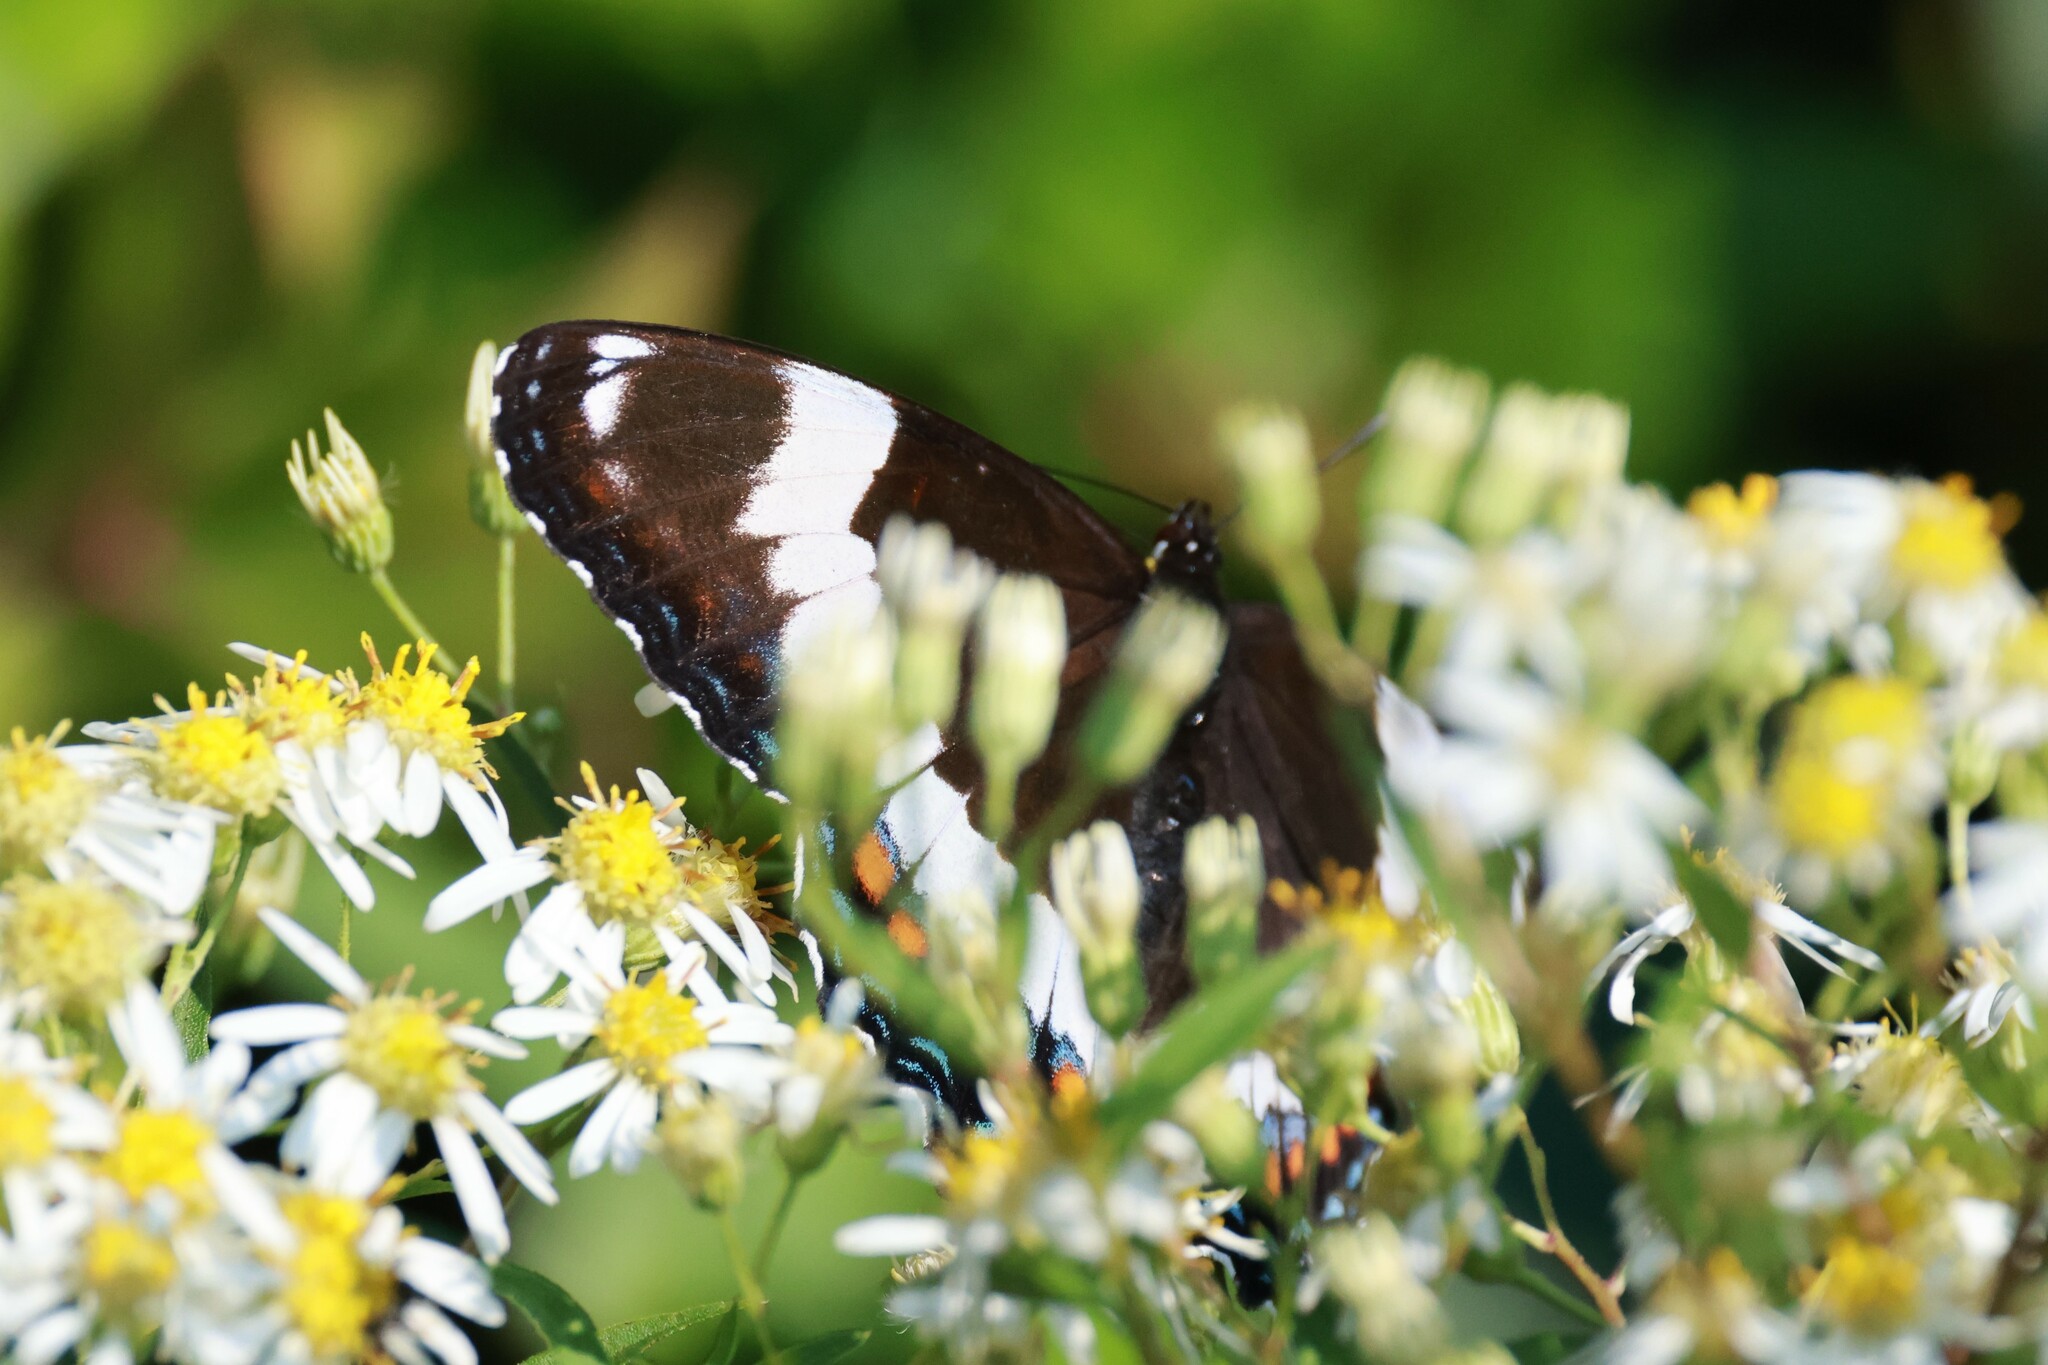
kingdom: Animalia
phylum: Arthropoda
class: Insecta
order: Lepidoptera
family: Nymphalidae
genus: Limenitis
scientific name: Limenitis arthemis
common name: Red-spotted admiral
